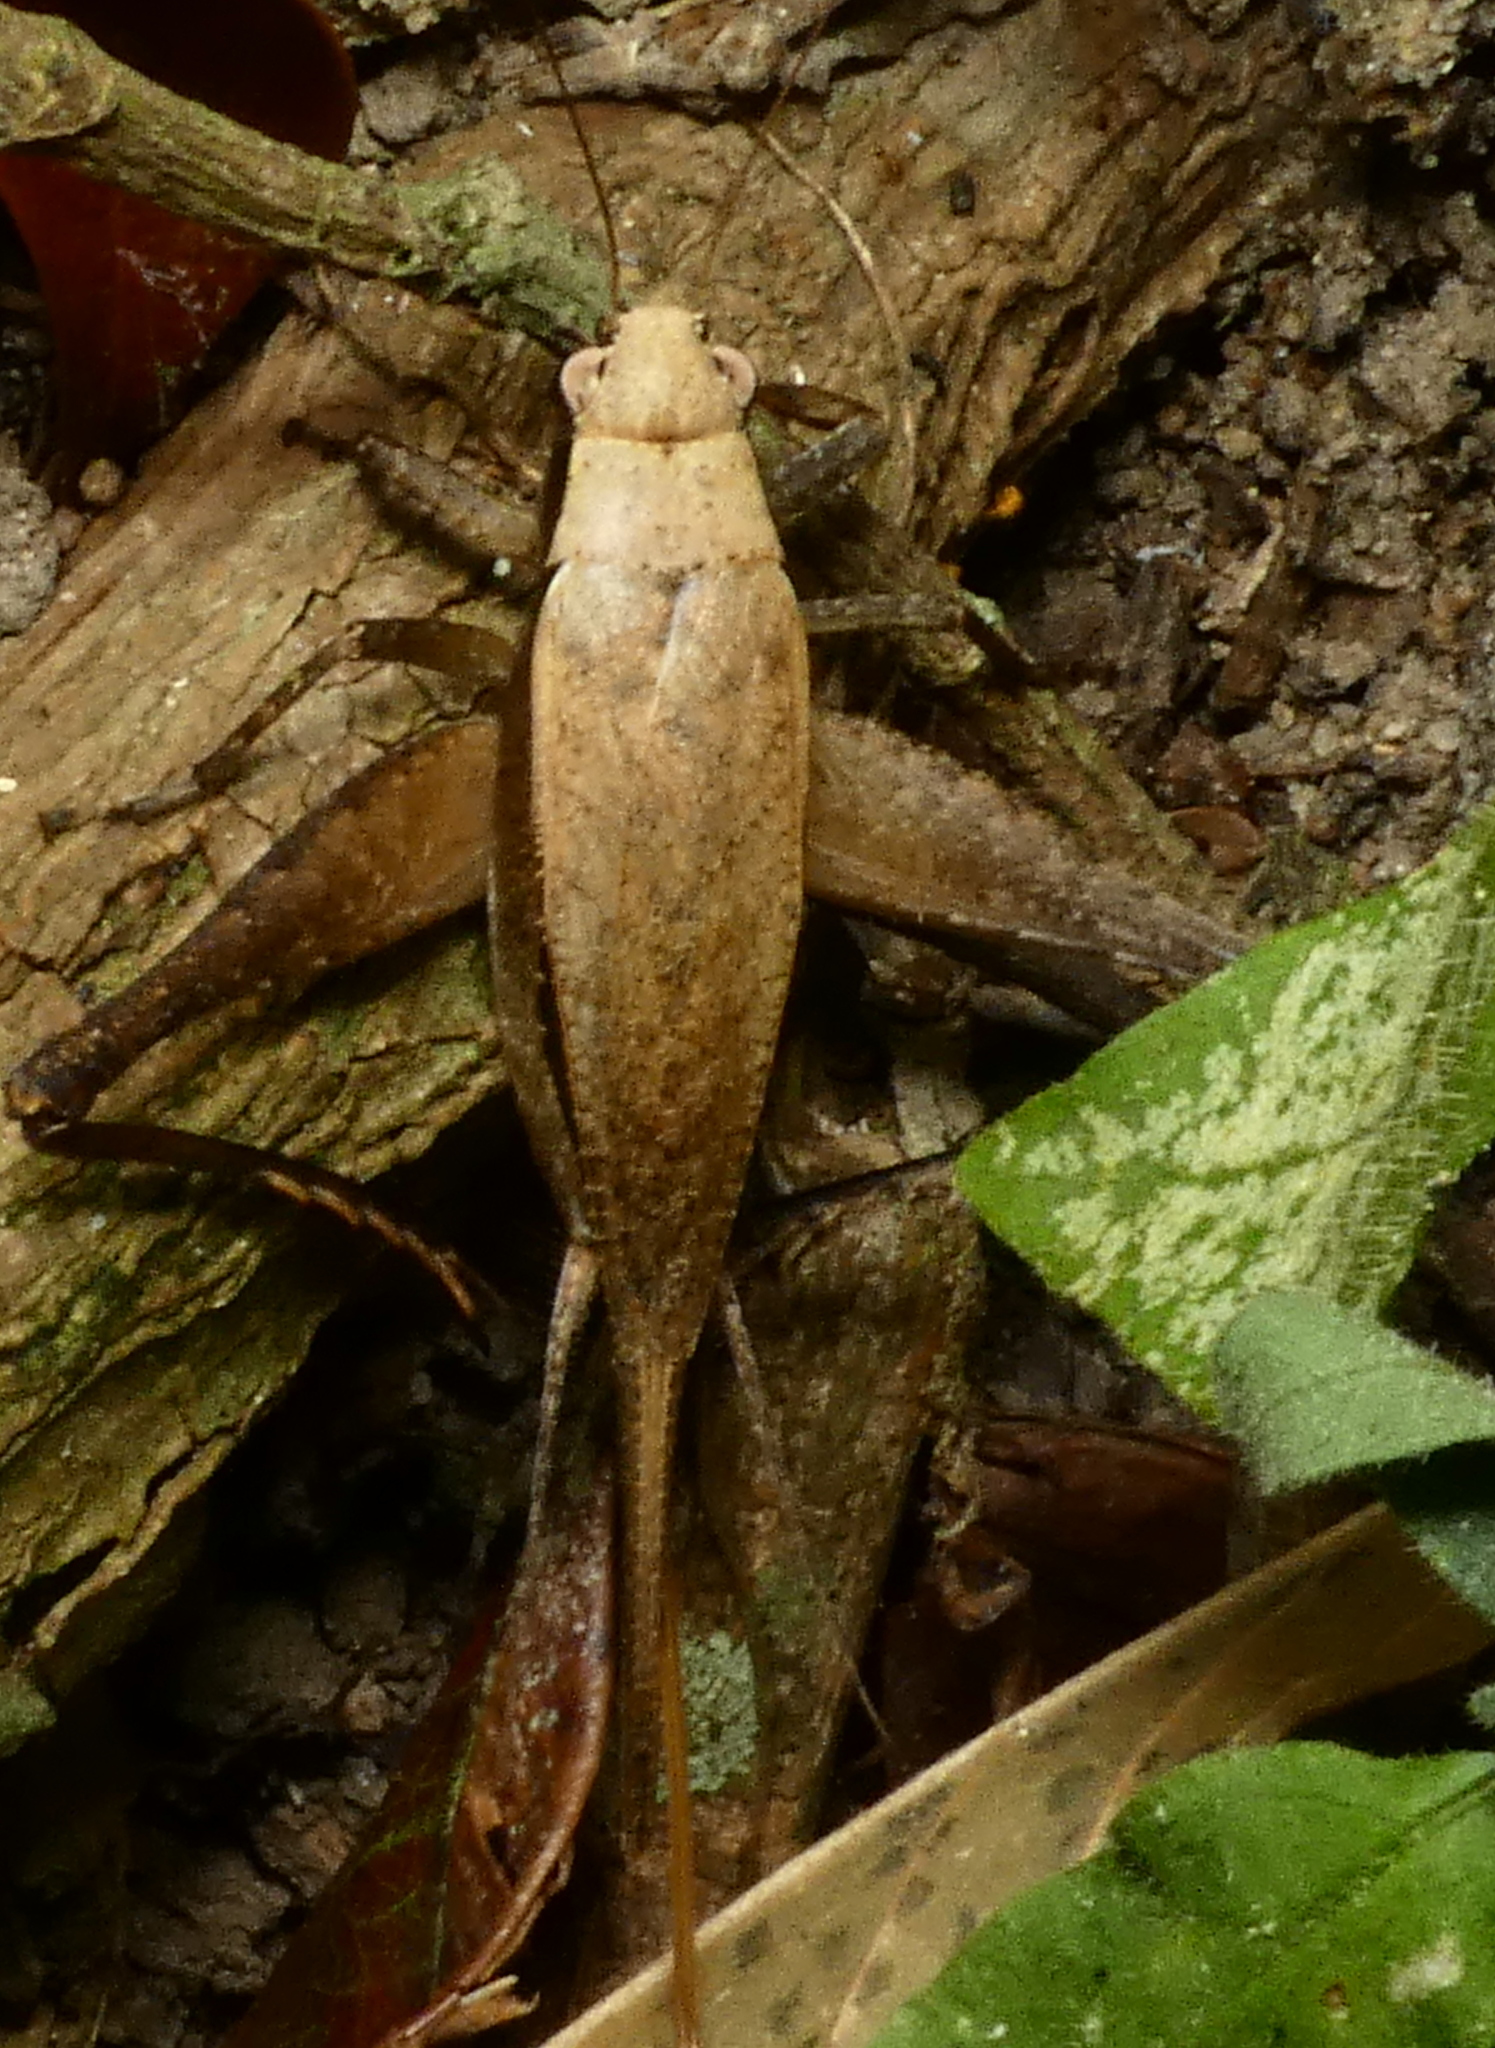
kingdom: Animalia
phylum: Arthropoda
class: Insecta
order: Orthoptera
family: Gryllidae
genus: Eneoptera
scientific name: Eneoptera surinamensis
